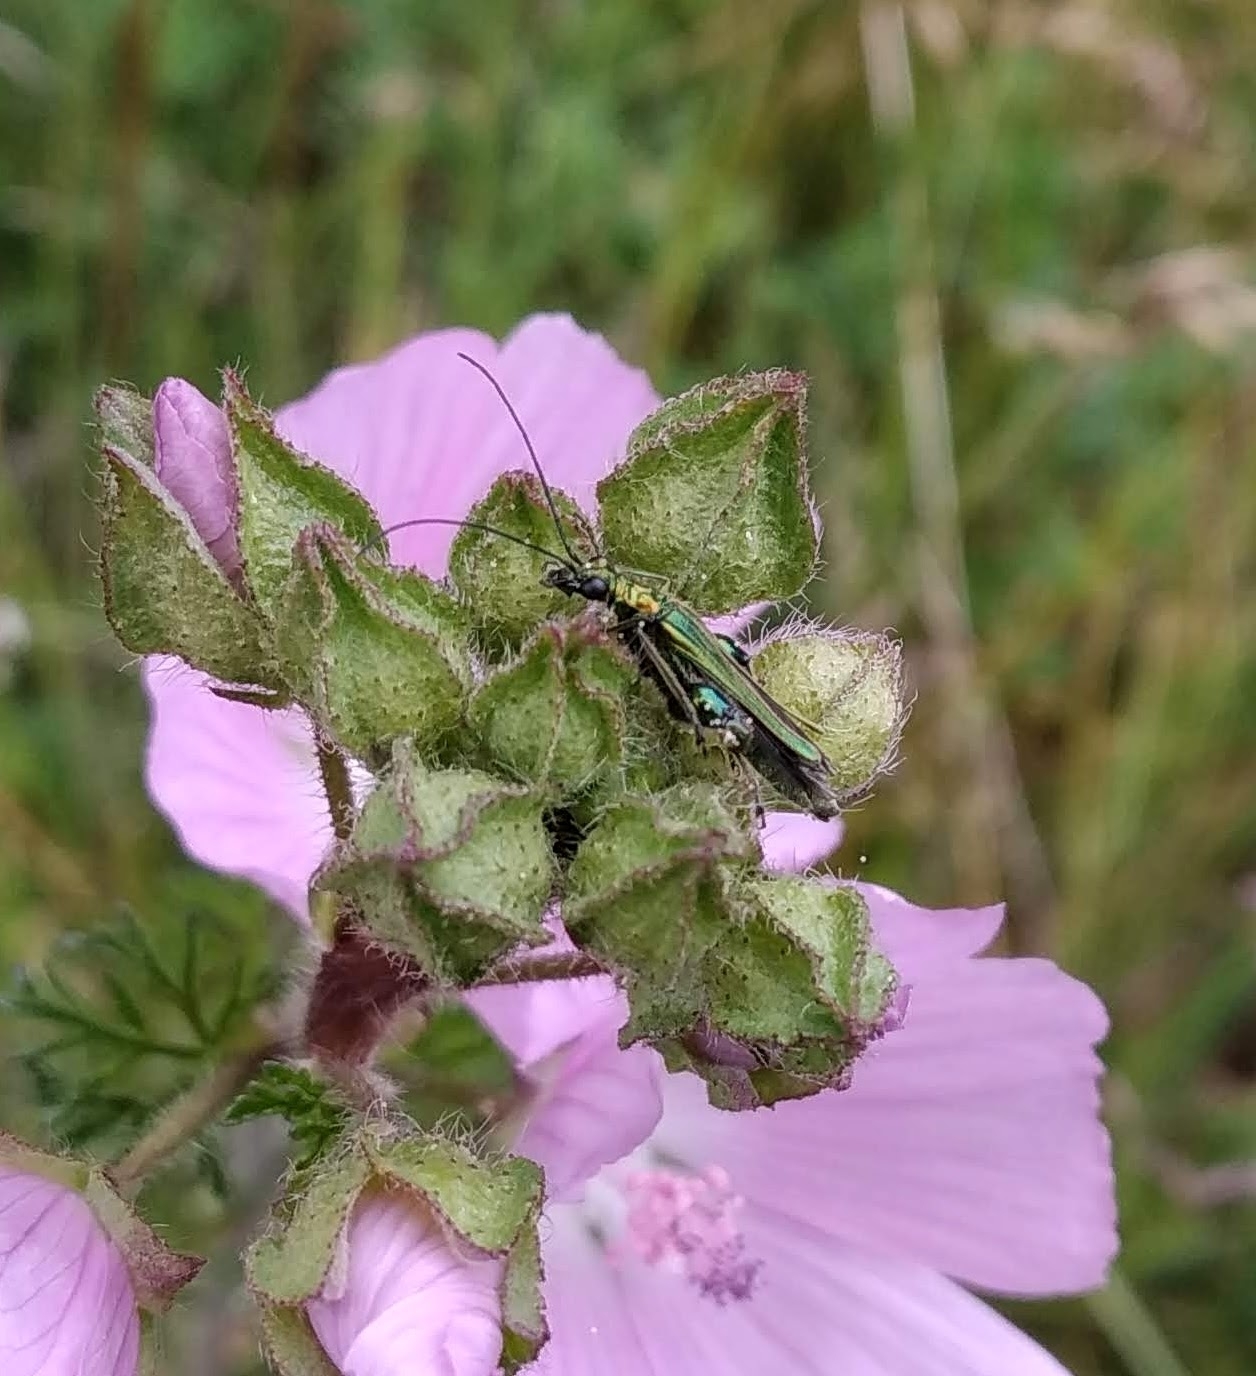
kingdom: Animalia
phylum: Arthropoda
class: Insecta
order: Coleoptera
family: Oedemeridae
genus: Oedemera
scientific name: Oedemera nobilis
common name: Swollen-thighed beetle
